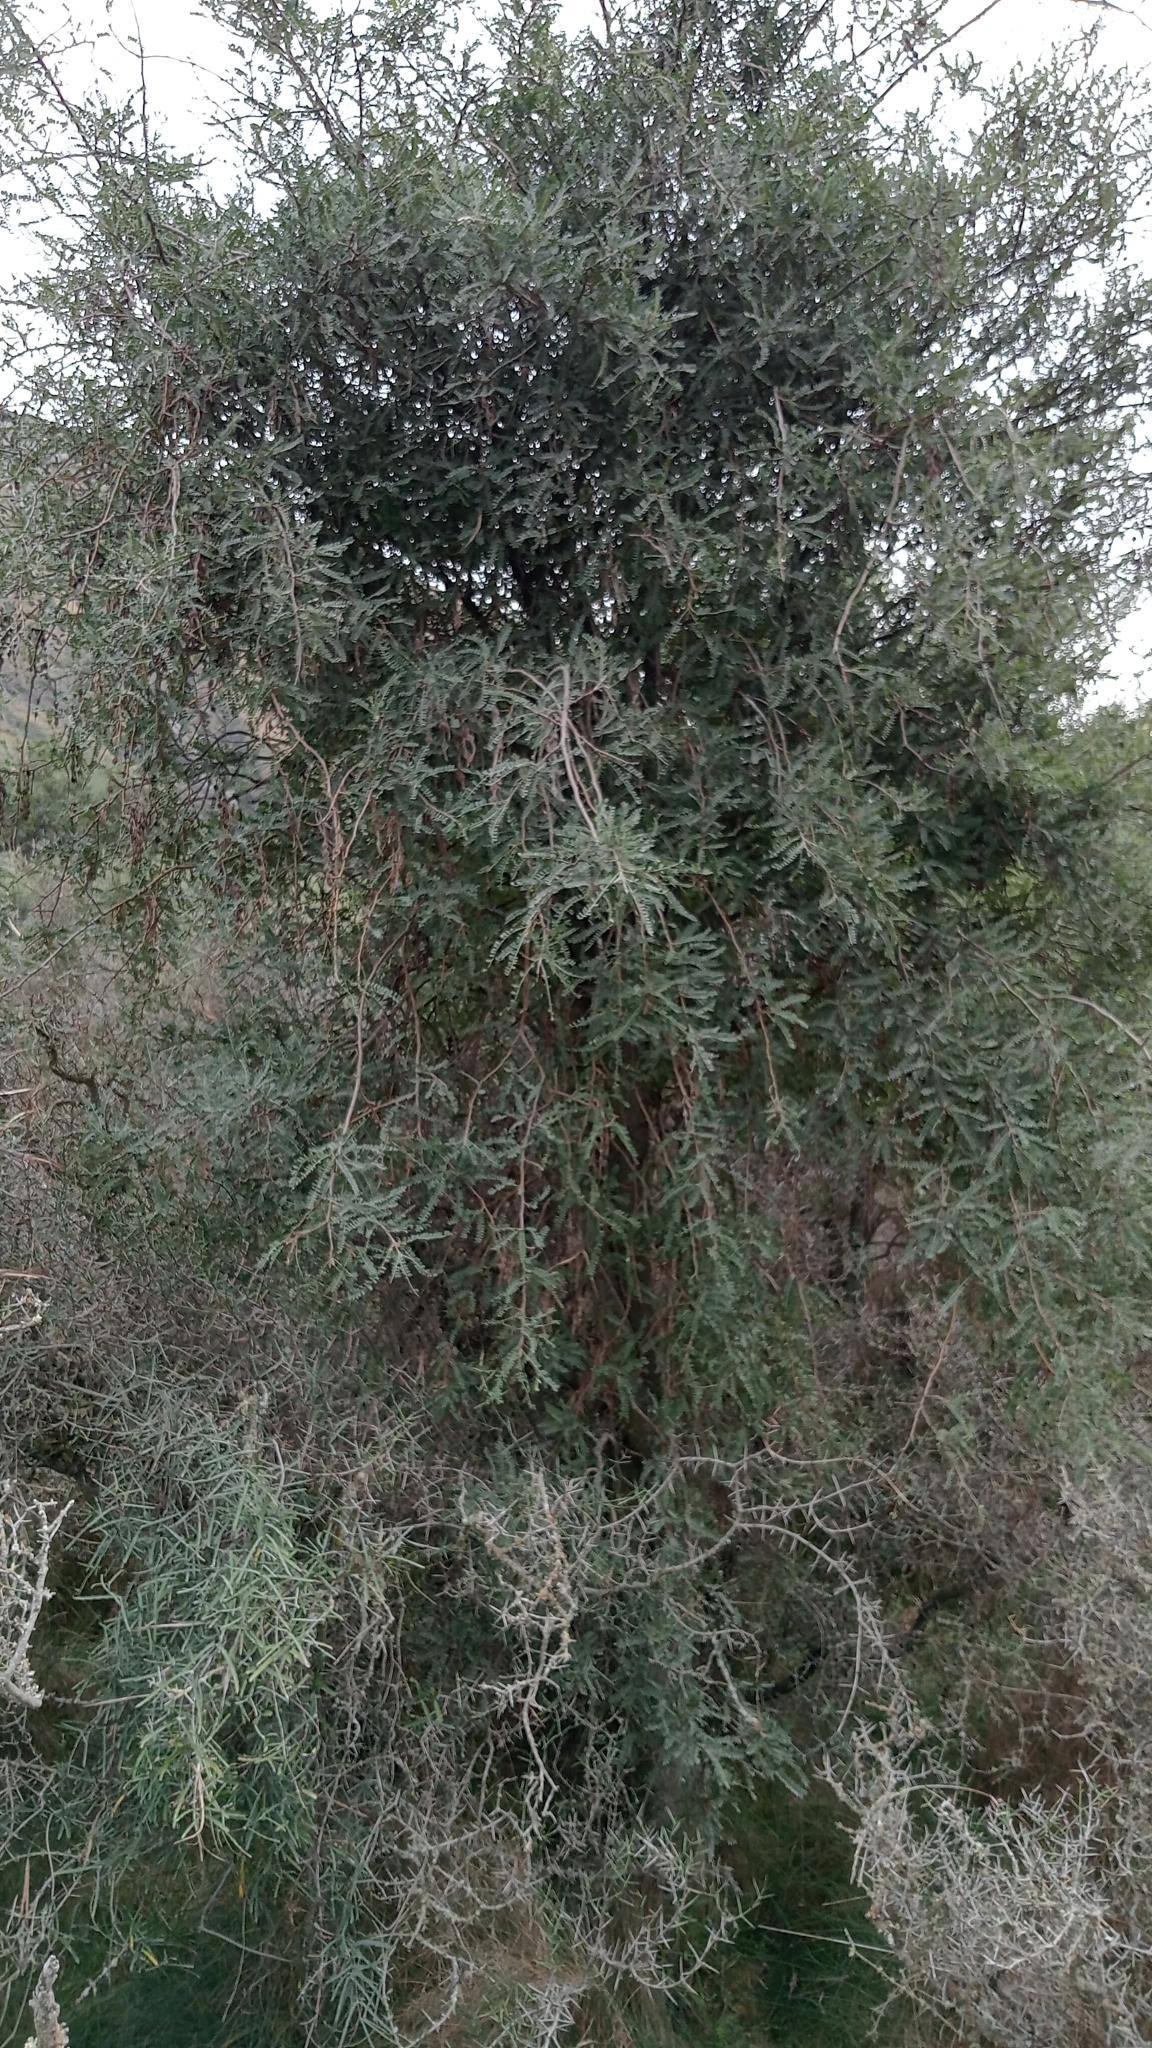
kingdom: Plantae
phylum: Tracheophyta
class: Magnoliopsida
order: Fabales
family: Fabaceae
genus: Sophora
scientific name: Sophora microphylla
